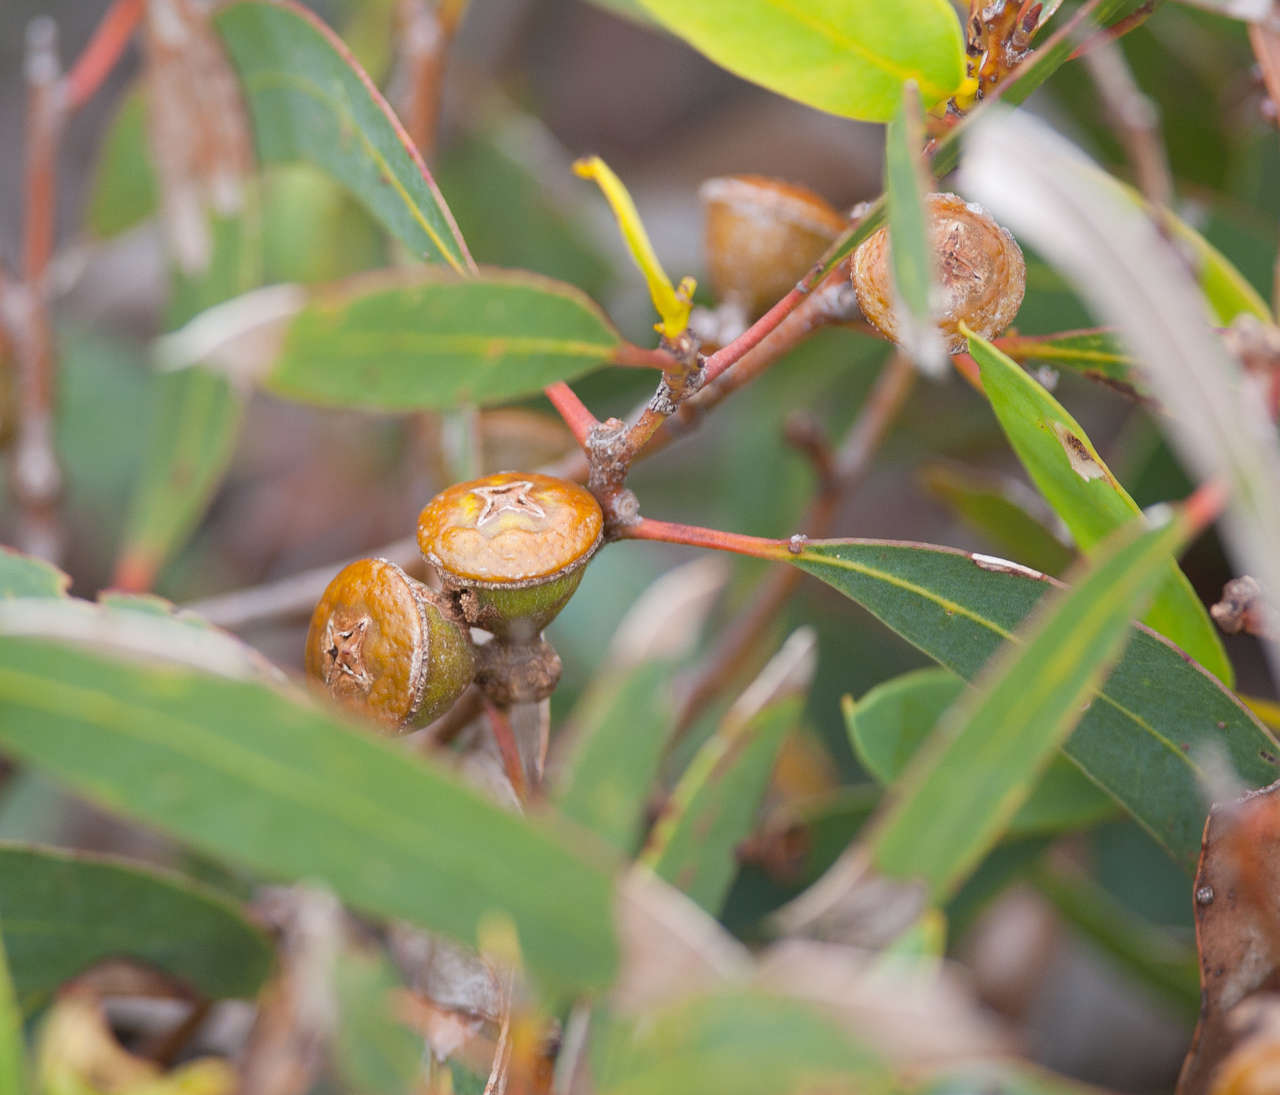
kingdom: Plantae
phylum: Tracheophyta
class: Magnoliopsida
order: Myrtales
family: Myrtaceae
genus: Eucalyptus
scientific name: Eucalyptus diversifolia
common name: Coastal white mallee
